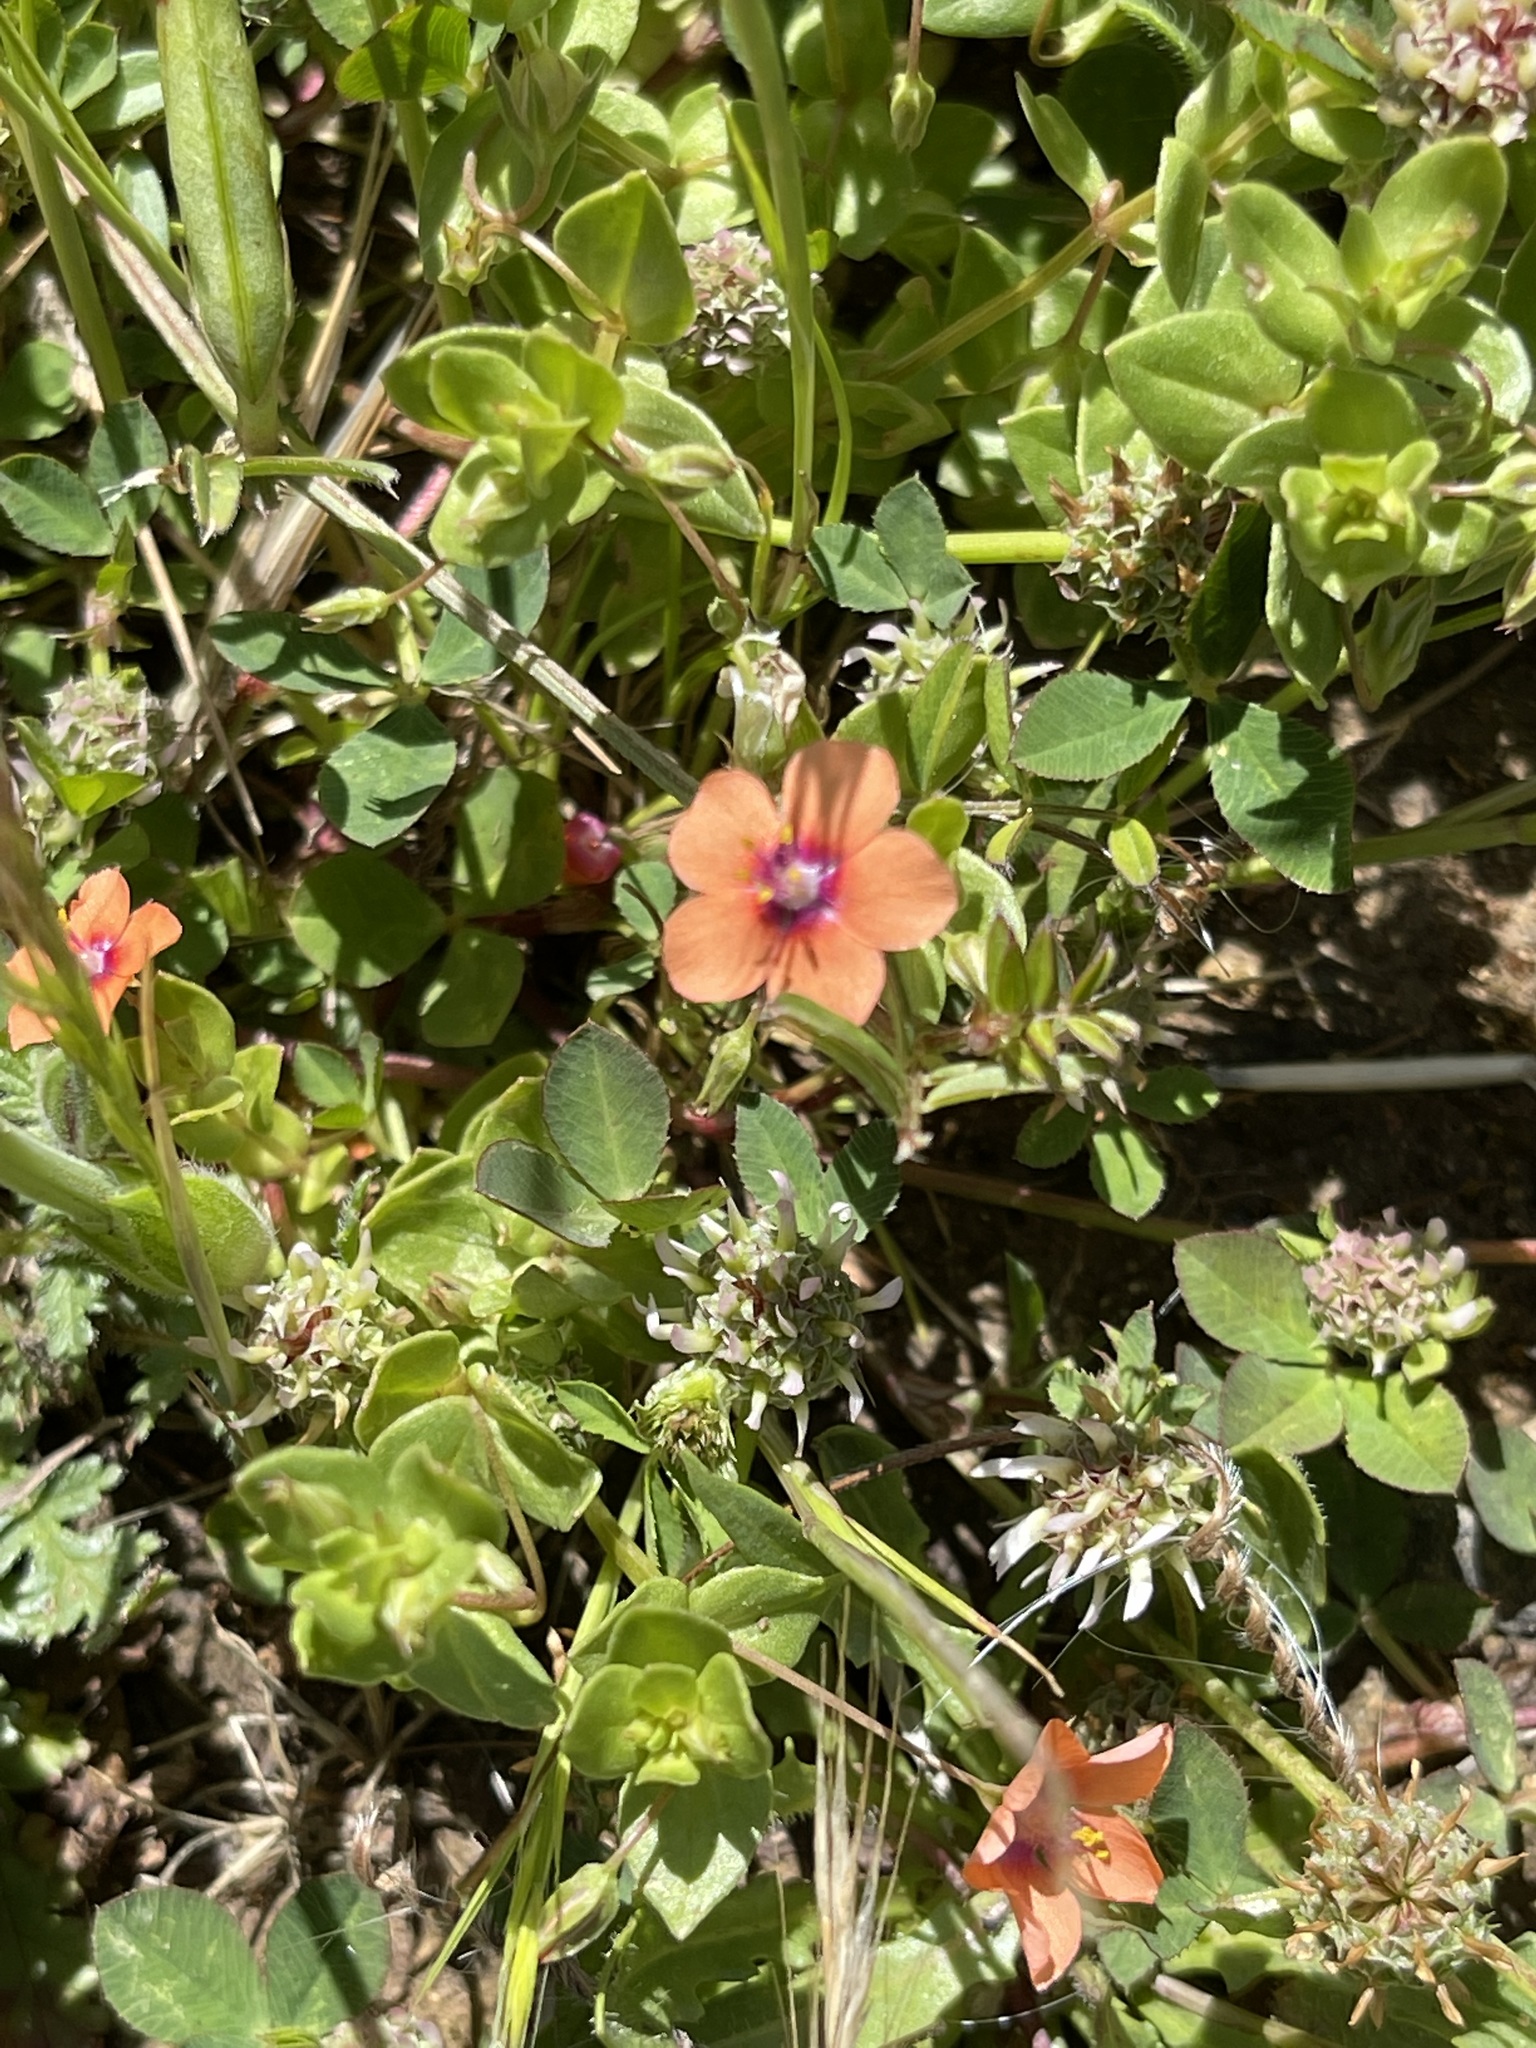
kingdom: Plantae
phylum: Tracheophyta
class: Magnoliopsida
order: Ericales
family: Primulaceae
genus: Lysimachia
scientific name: Lysimachia arvensis
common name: Scarlet pimpernel
